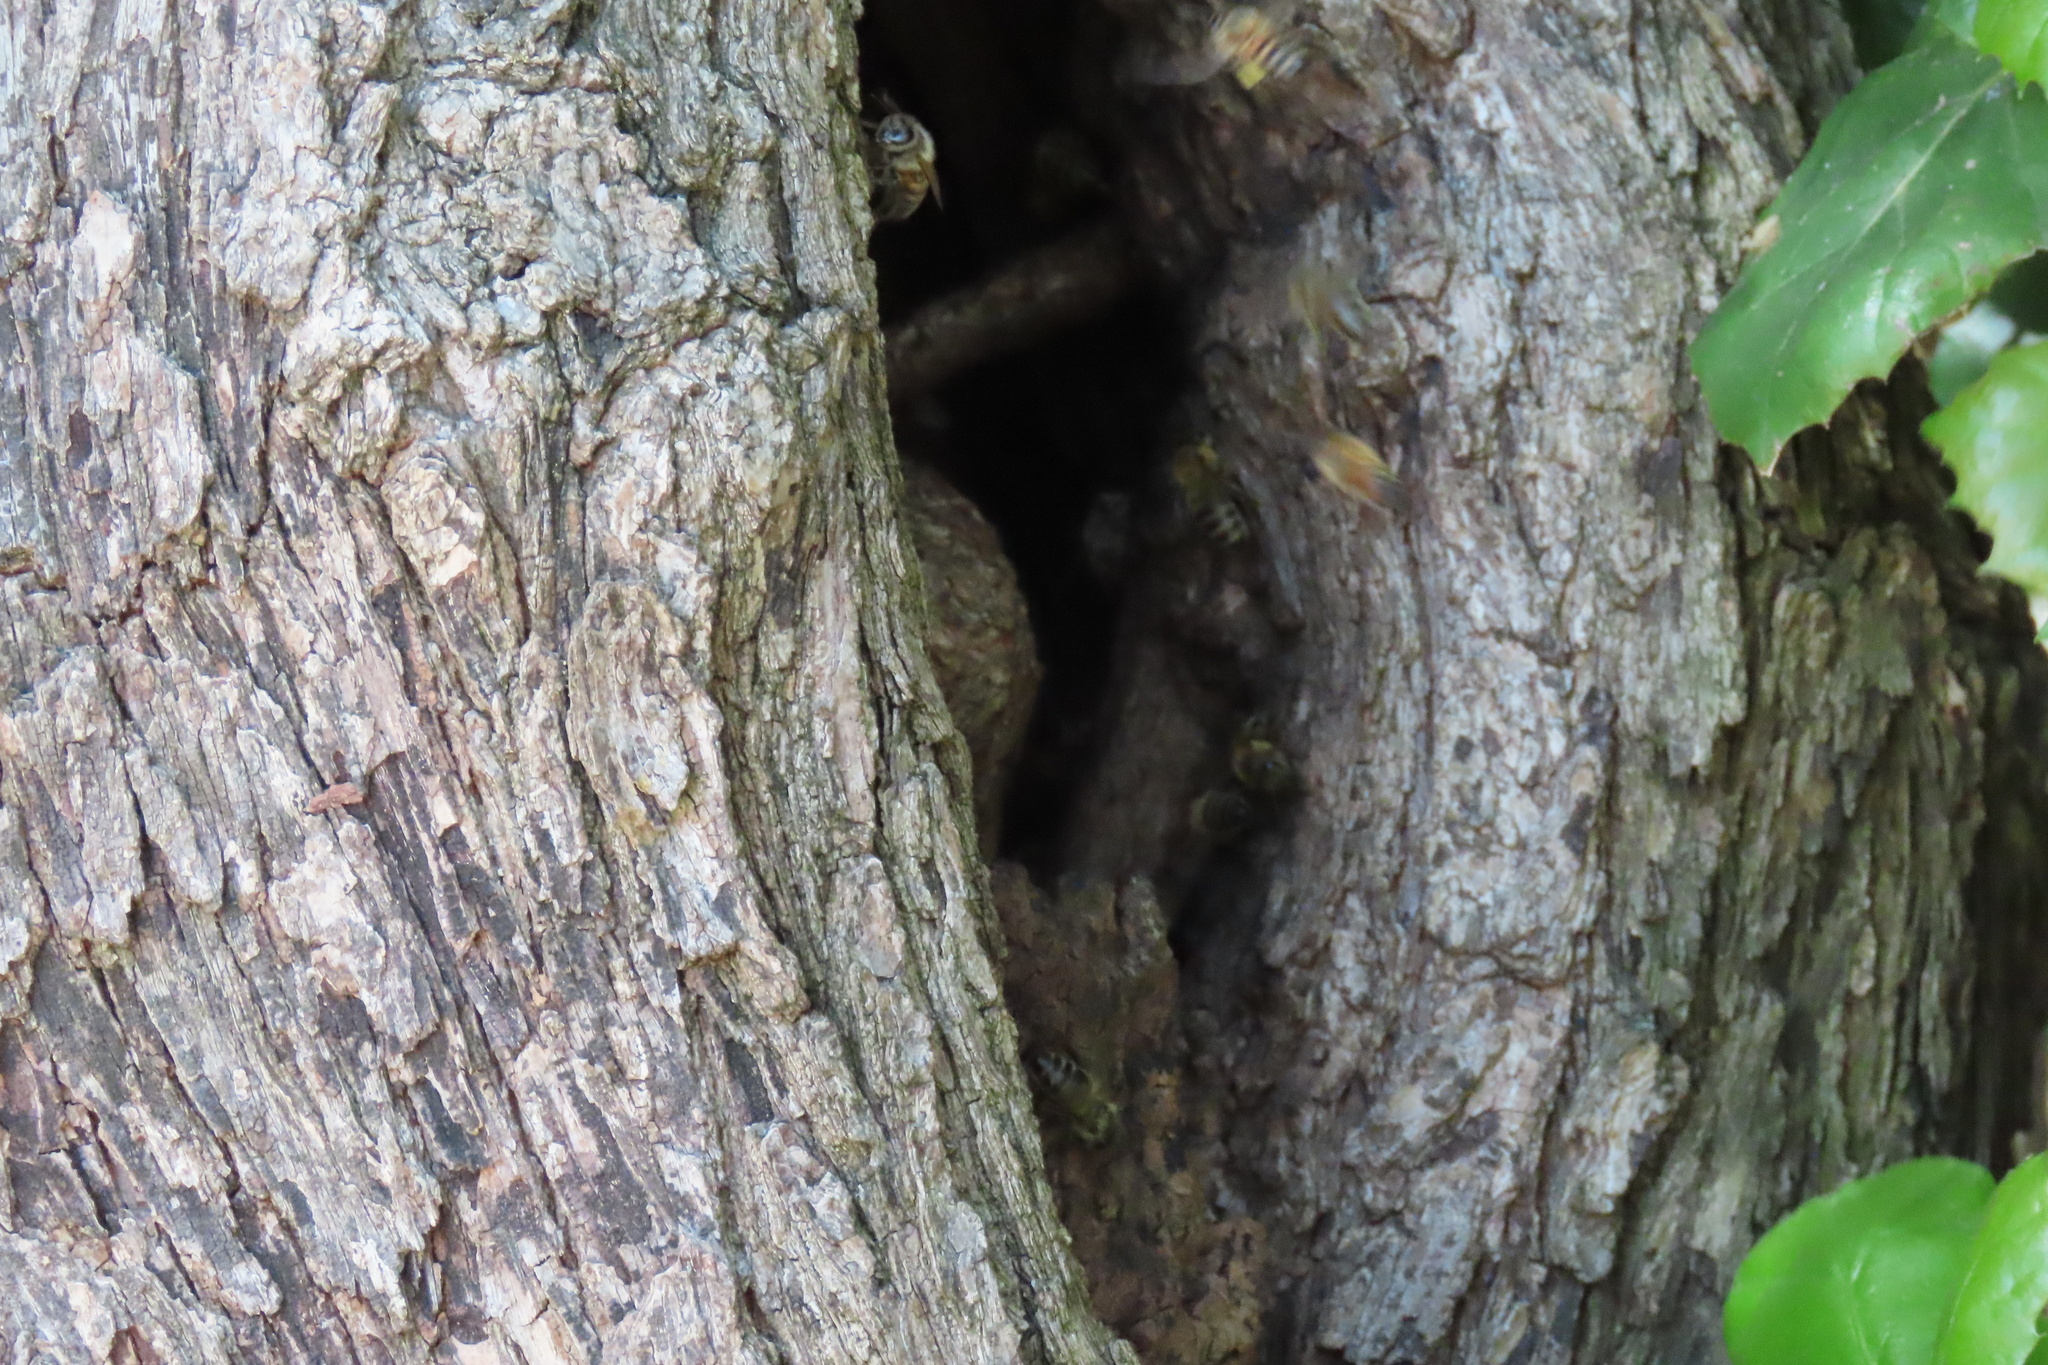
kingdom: Animalia
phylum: Arthropoda
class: Insecta
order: Hymenoptera
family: Apidae
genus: Apis
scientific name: Apis mellifera
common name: Honey bee
